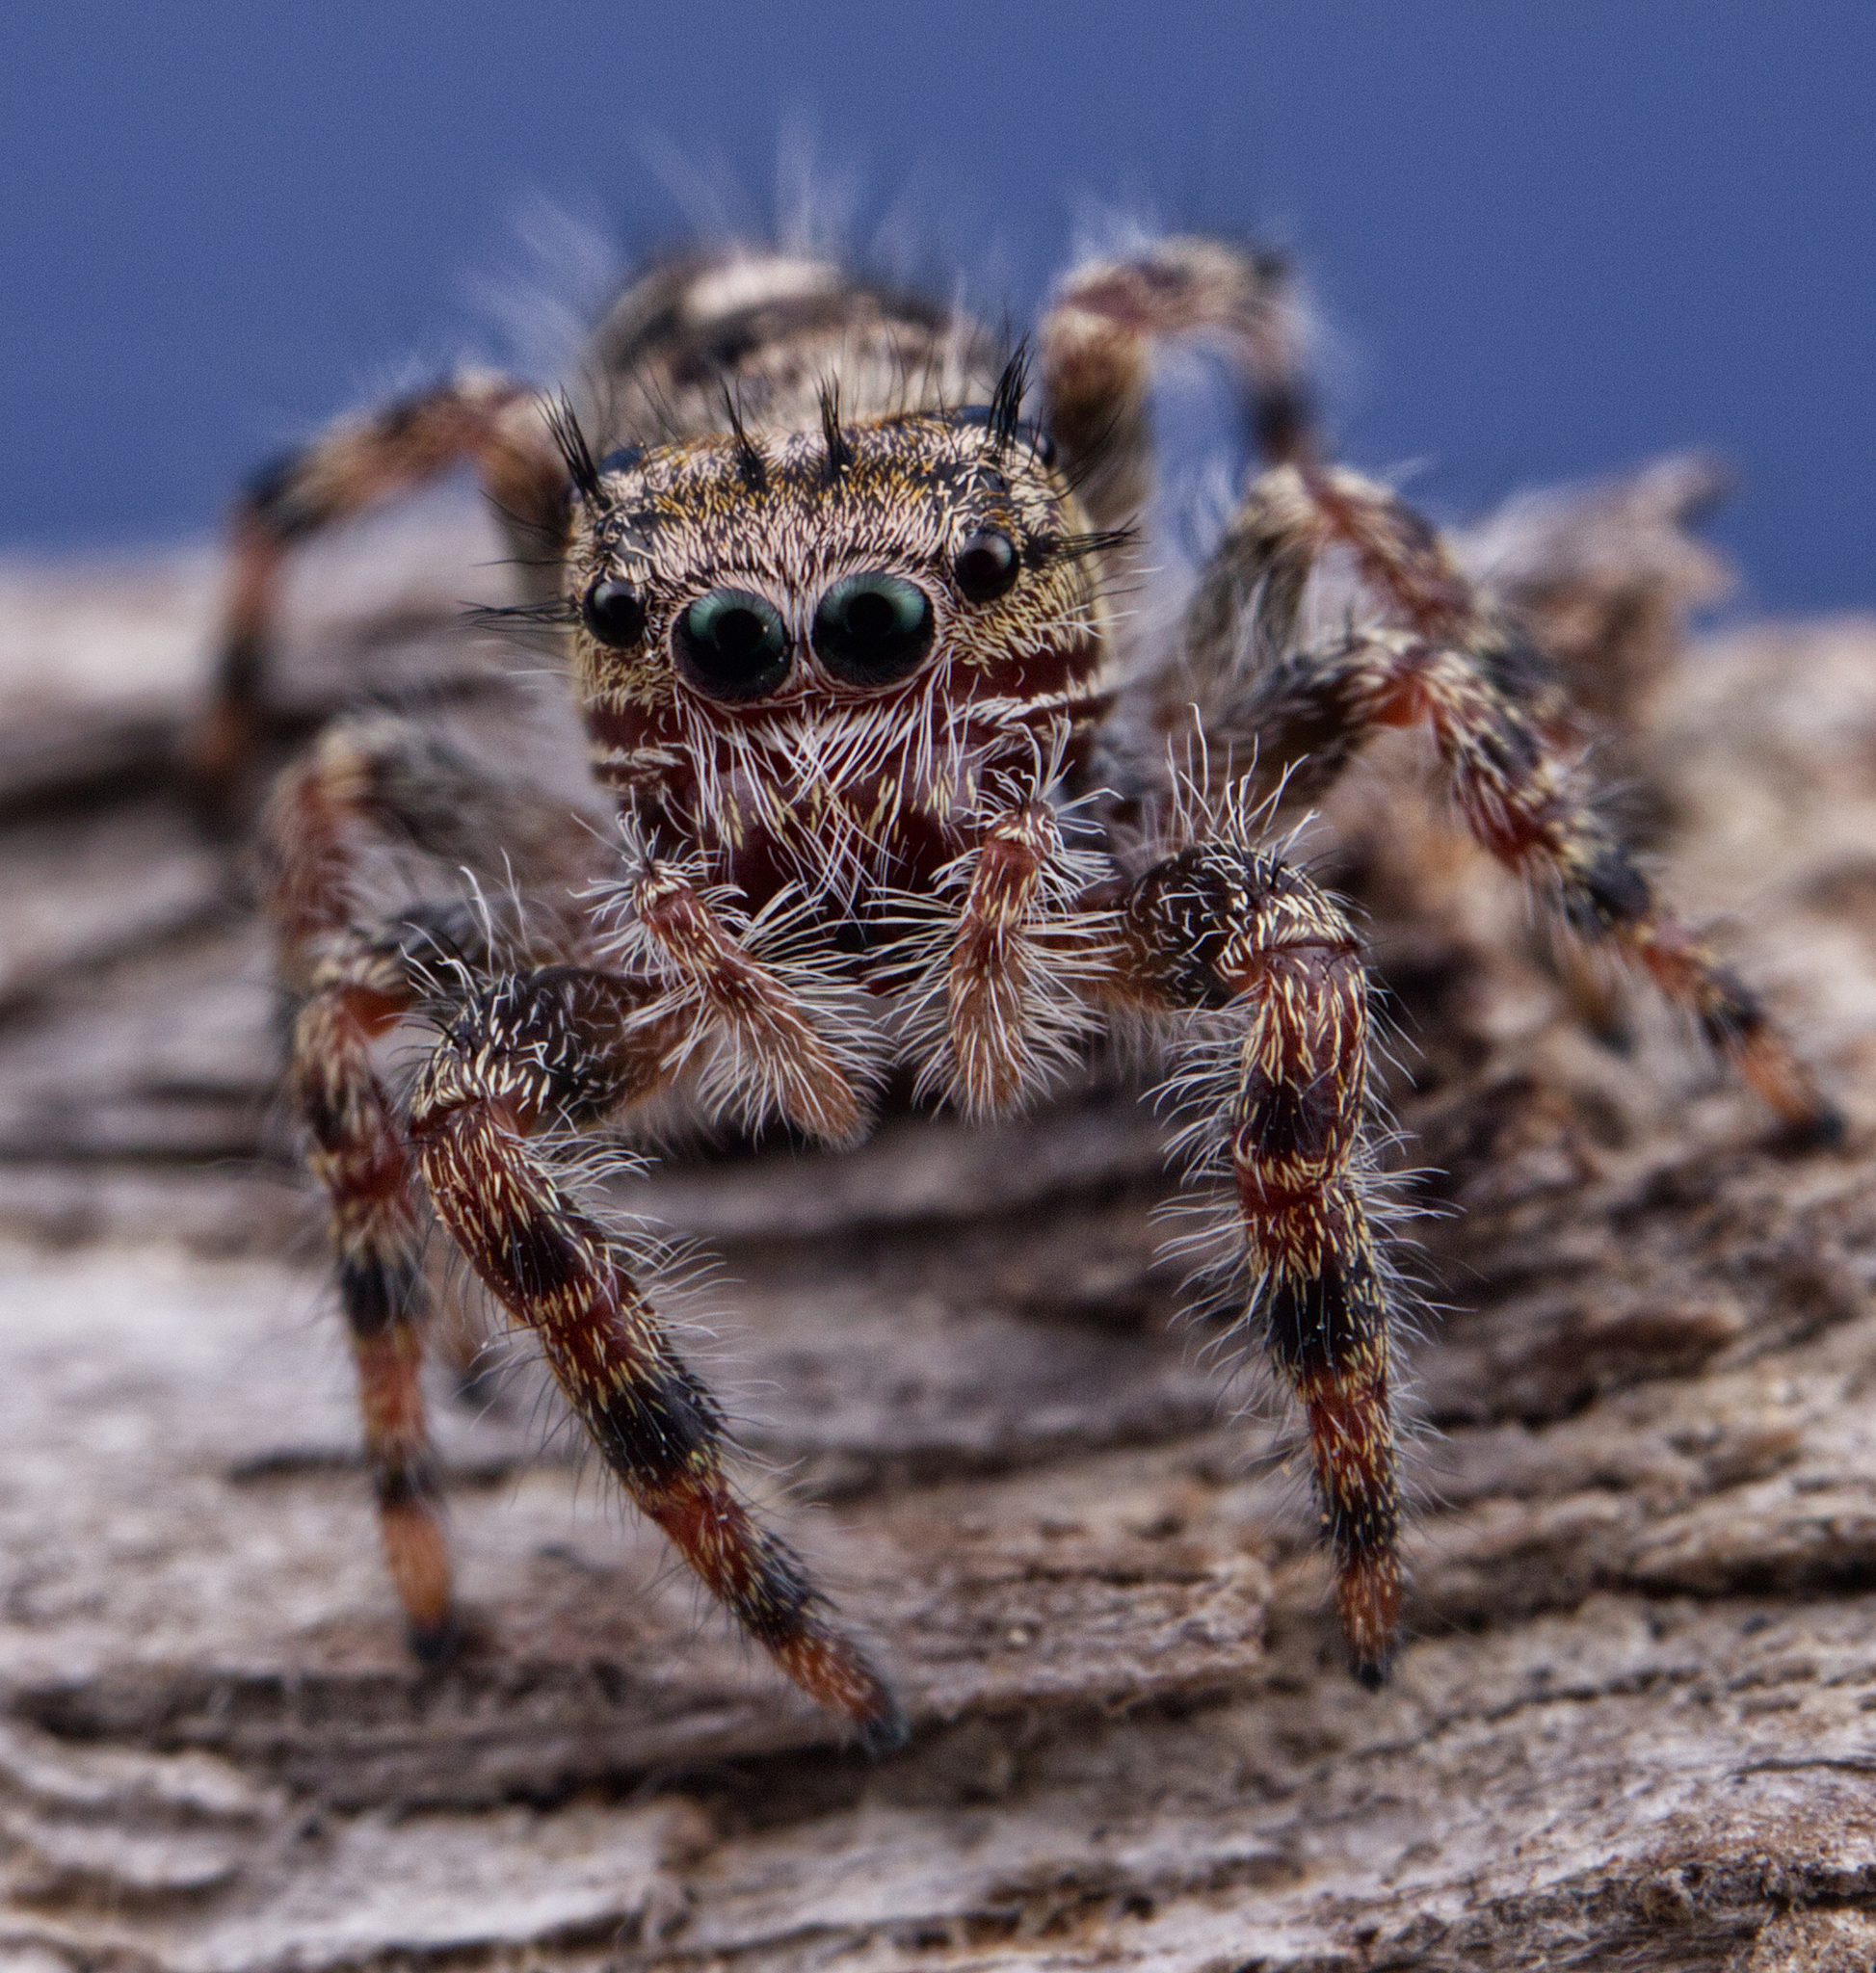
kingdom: Animalia
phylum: Arthropoda
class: Arachnida
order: Araneae
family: Salticidae
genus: Phidippus
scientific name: Phidippus putnami
